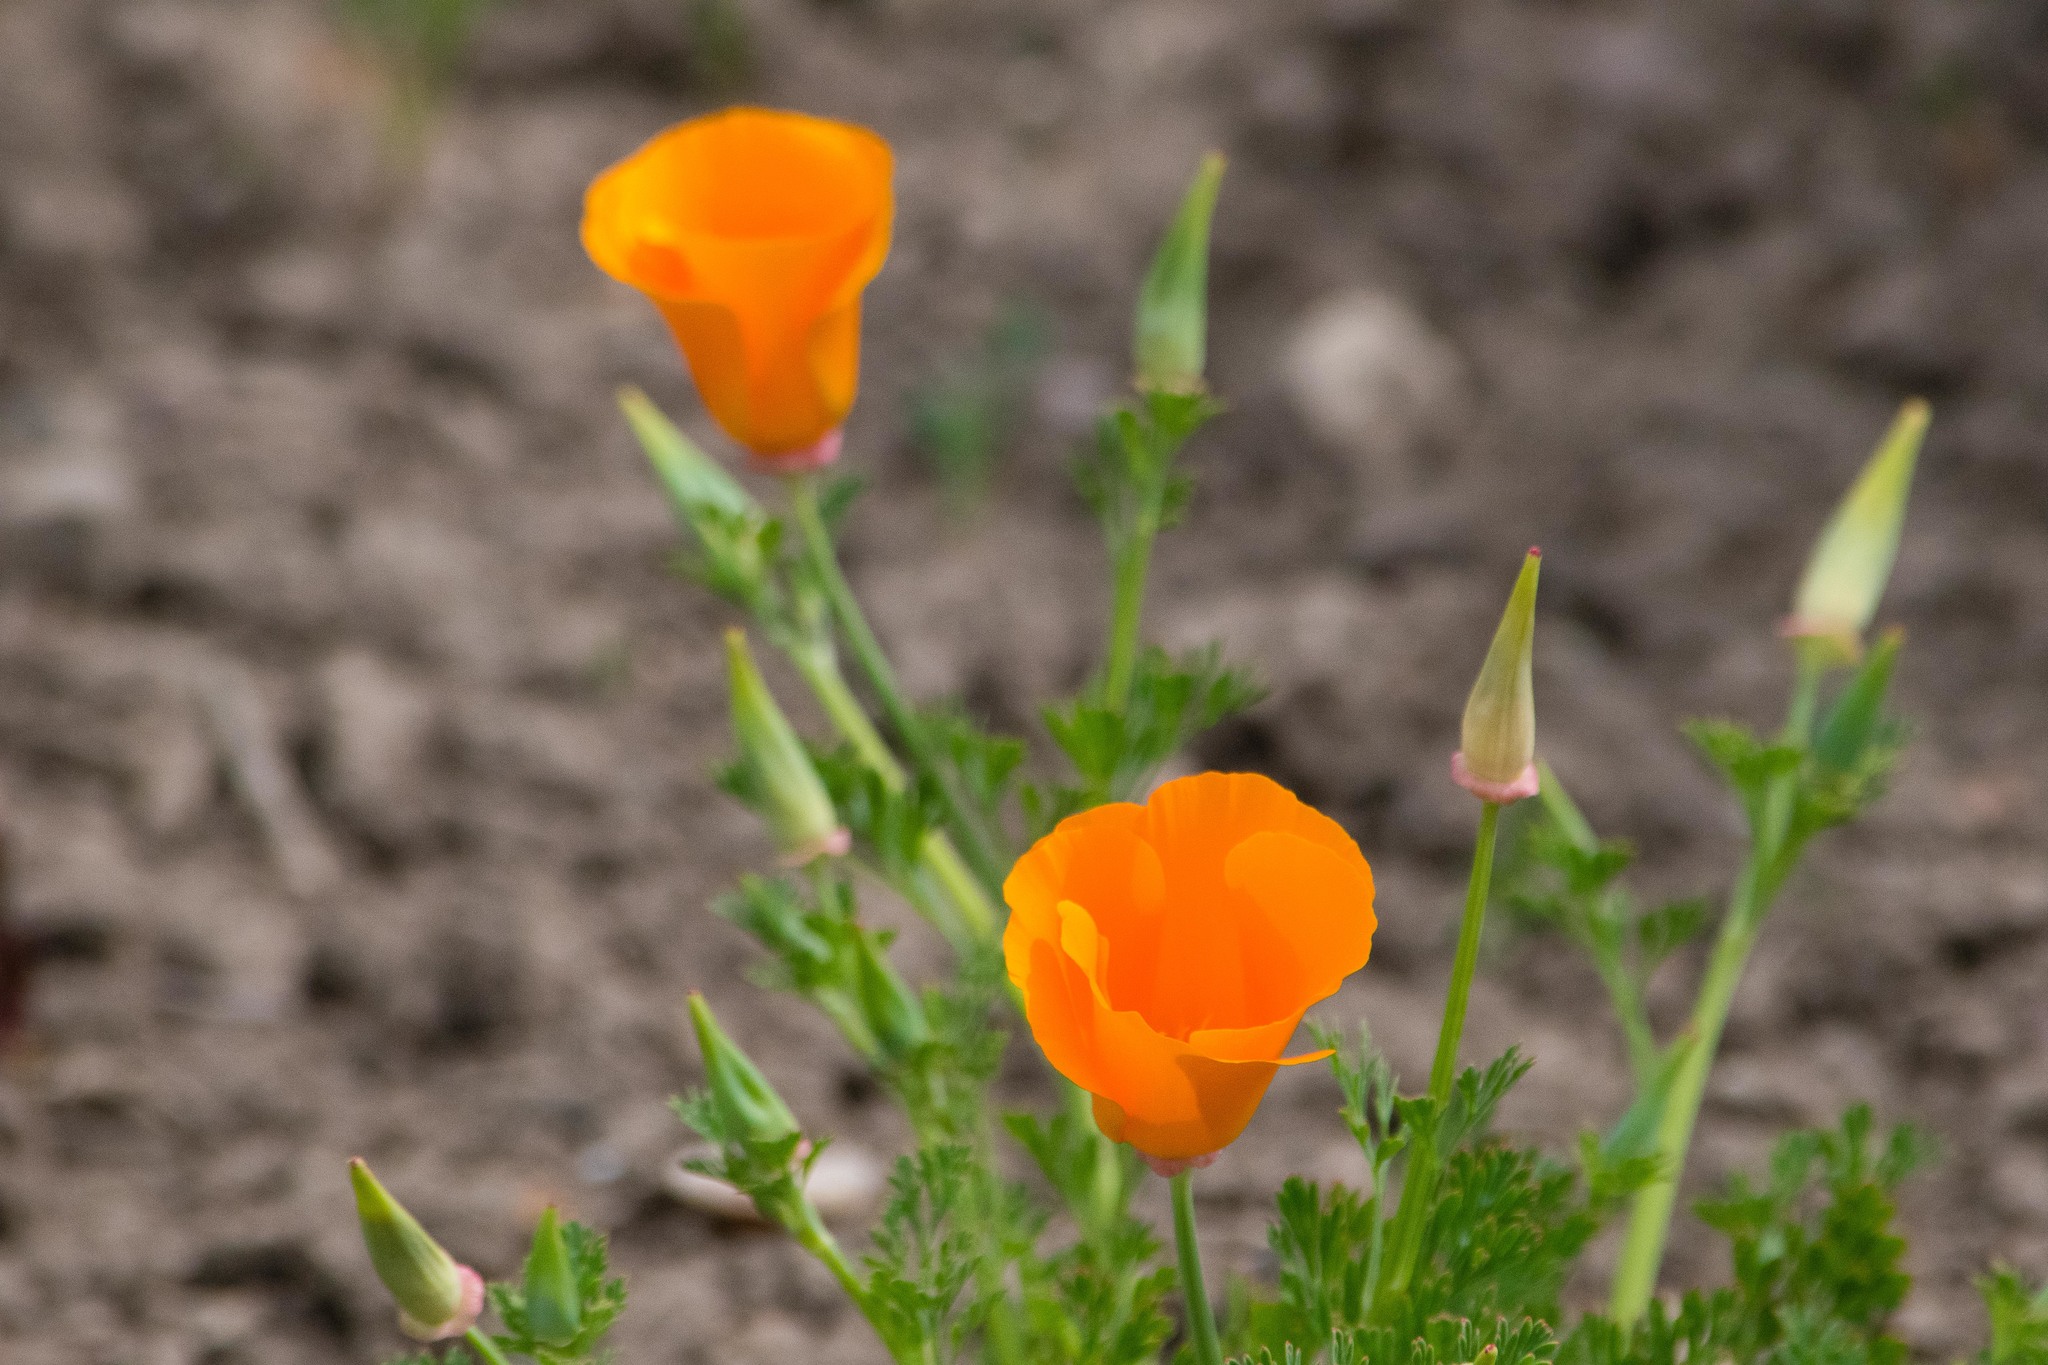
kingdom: Plantae
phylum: Tracheophyta
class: Magnoliopsida
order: Ranunculales
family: Papaveraceae
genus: Eschscholzia
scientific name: Eschscholzia californica
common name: California poppy
